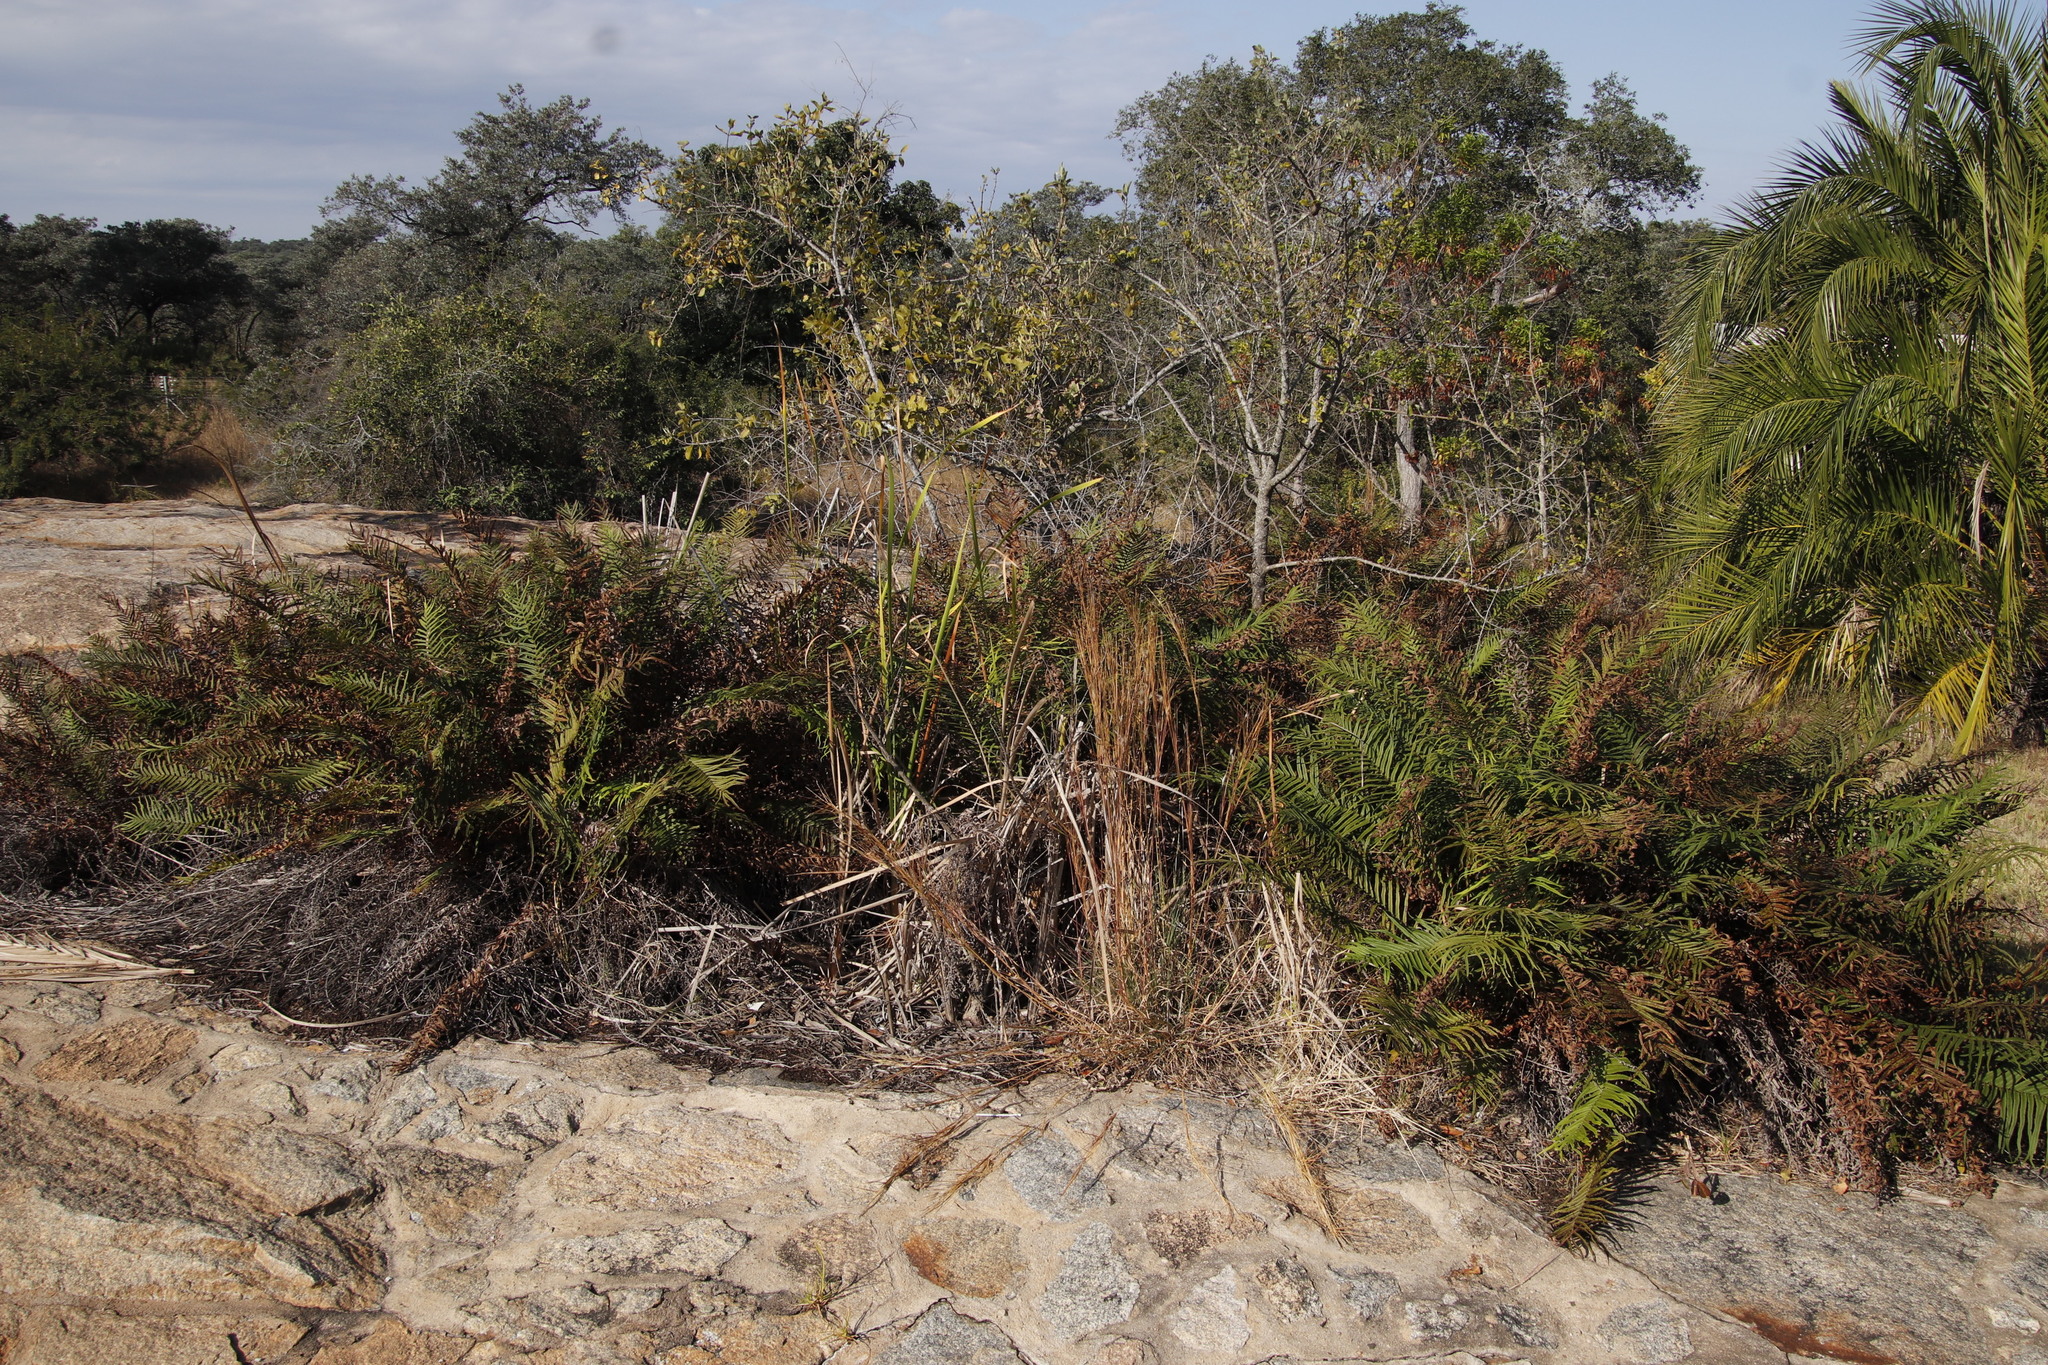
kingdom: Plantae
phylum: Tracheophyta
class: Liliopsida
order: Arecales
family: Arecaceae
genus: Phoenix
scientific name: Phoenix reclinata
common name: Senegal date palm
